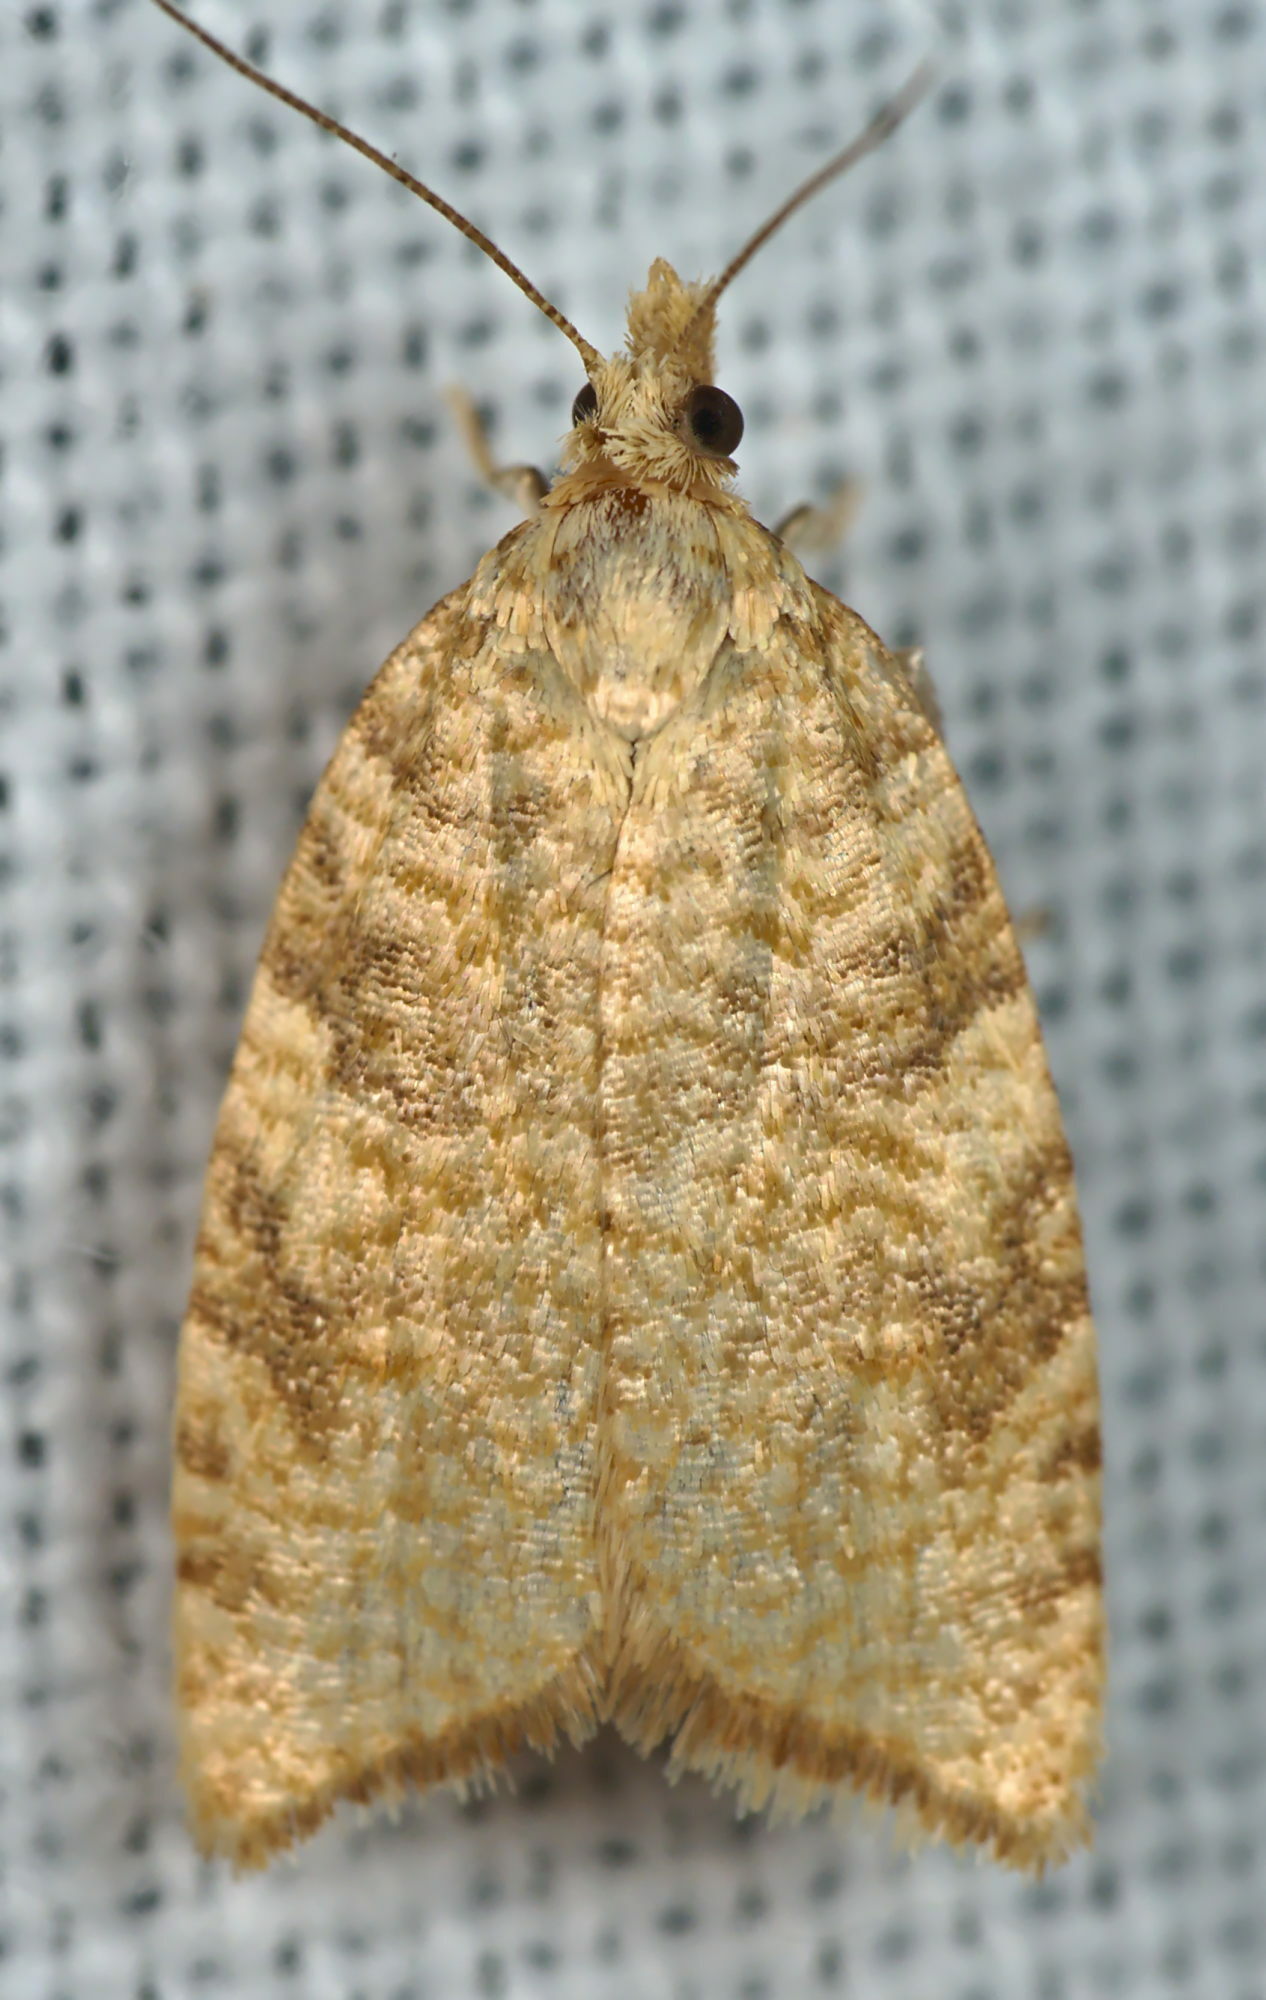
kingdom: Animalia
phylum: Arthropoda
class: Insecta
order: Lepidoptera
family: Tortricidae
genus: Aleimma
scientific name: Aleimma loeflingiana
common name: Yellow oak button
